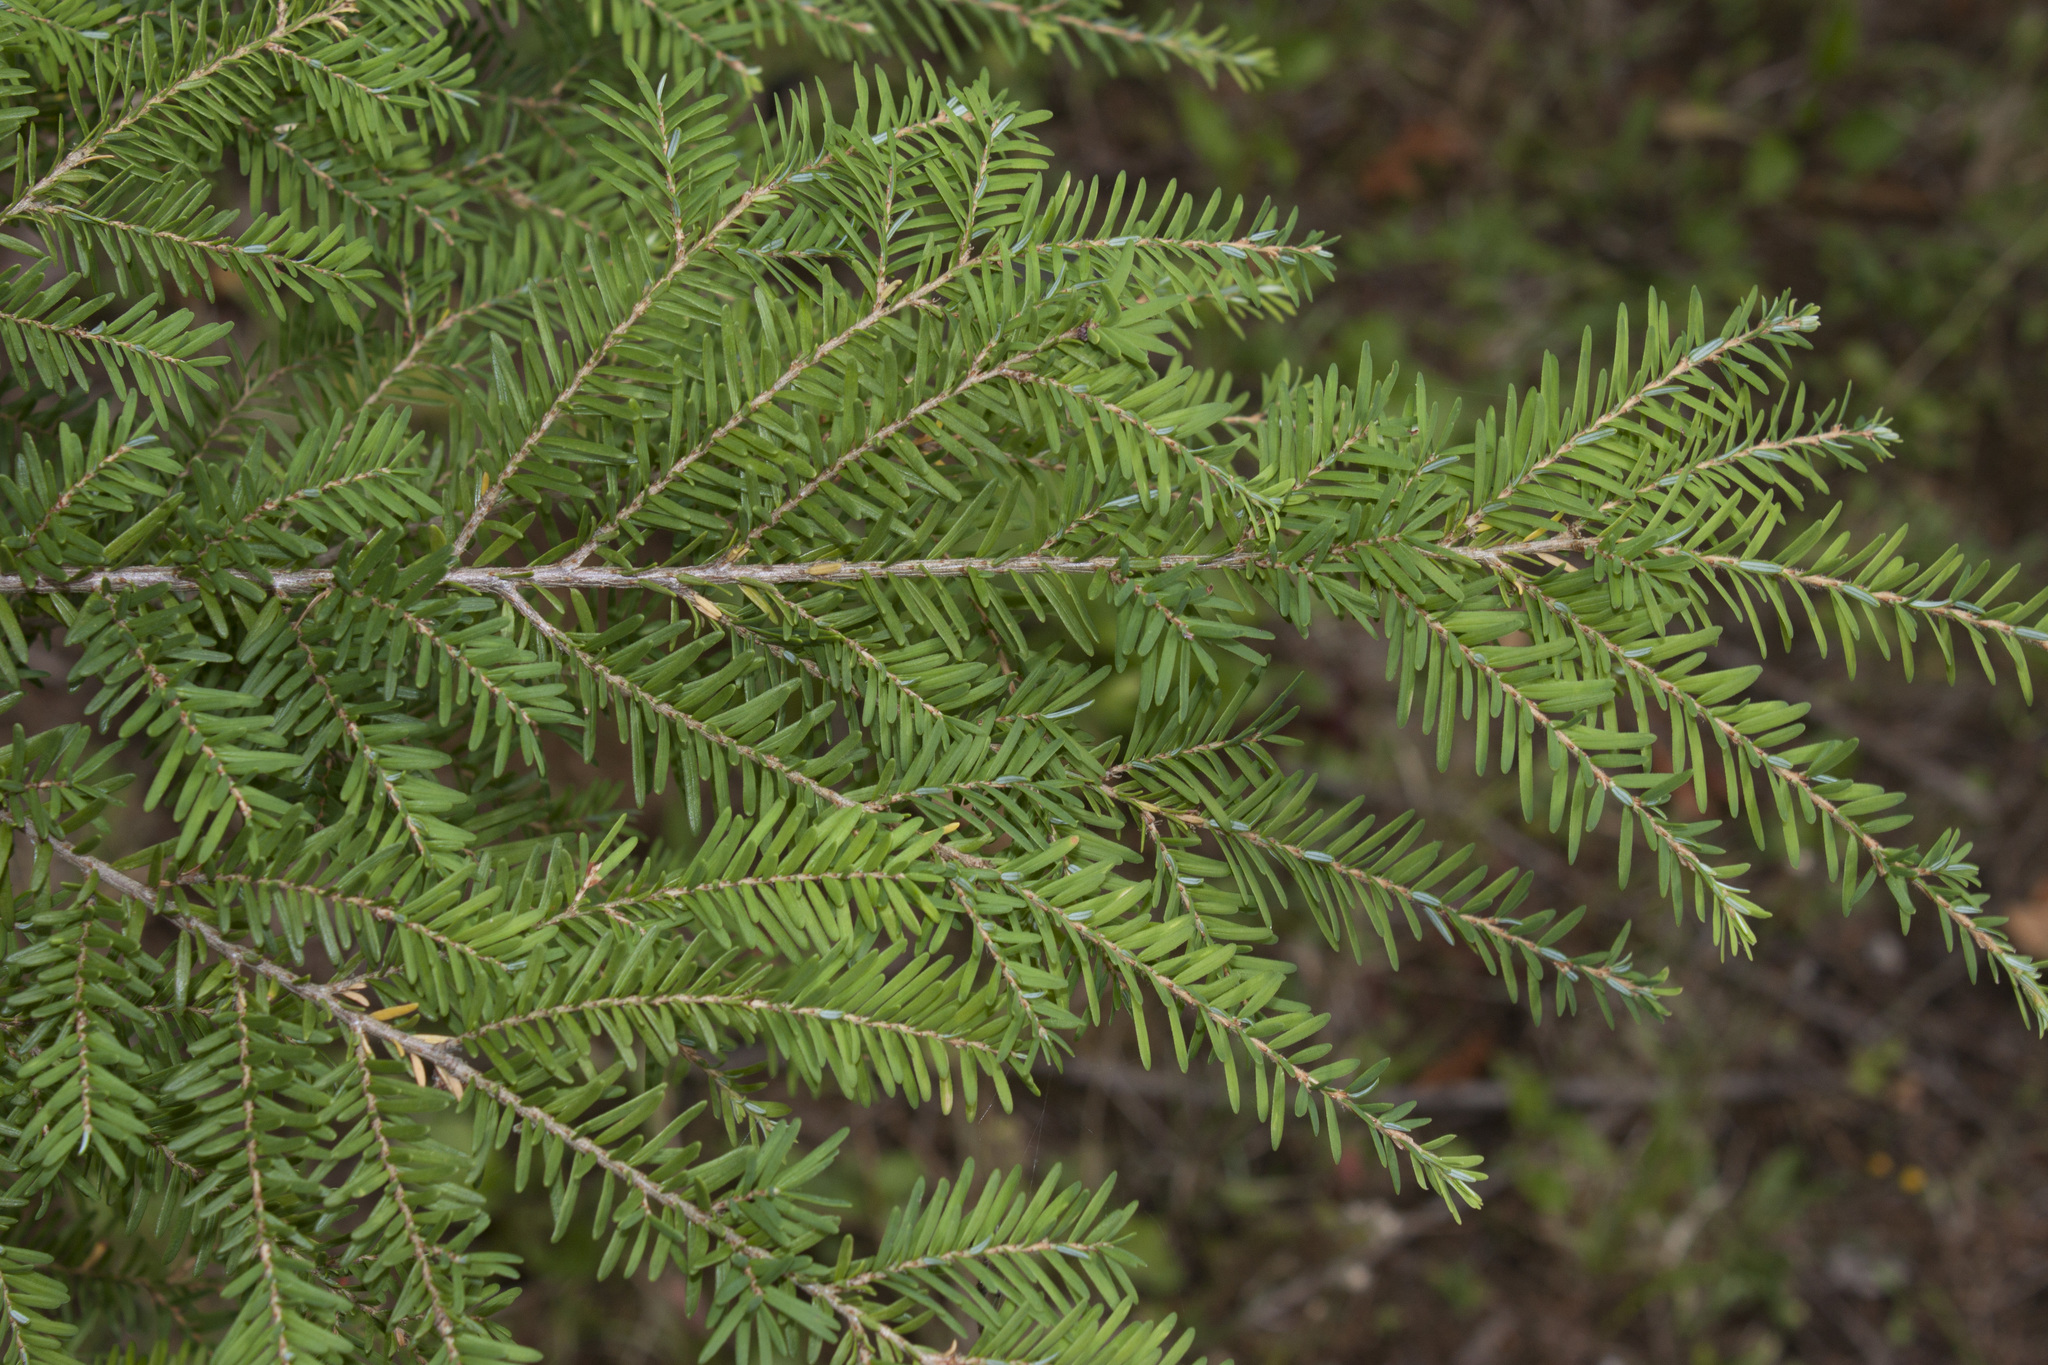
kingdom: Plantae
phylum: Tracheophyta
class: Pinopsida
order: Pinales
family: Pinaceae
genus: Tsuga
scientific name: Tsuga heterophylla
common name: Western hemlock
